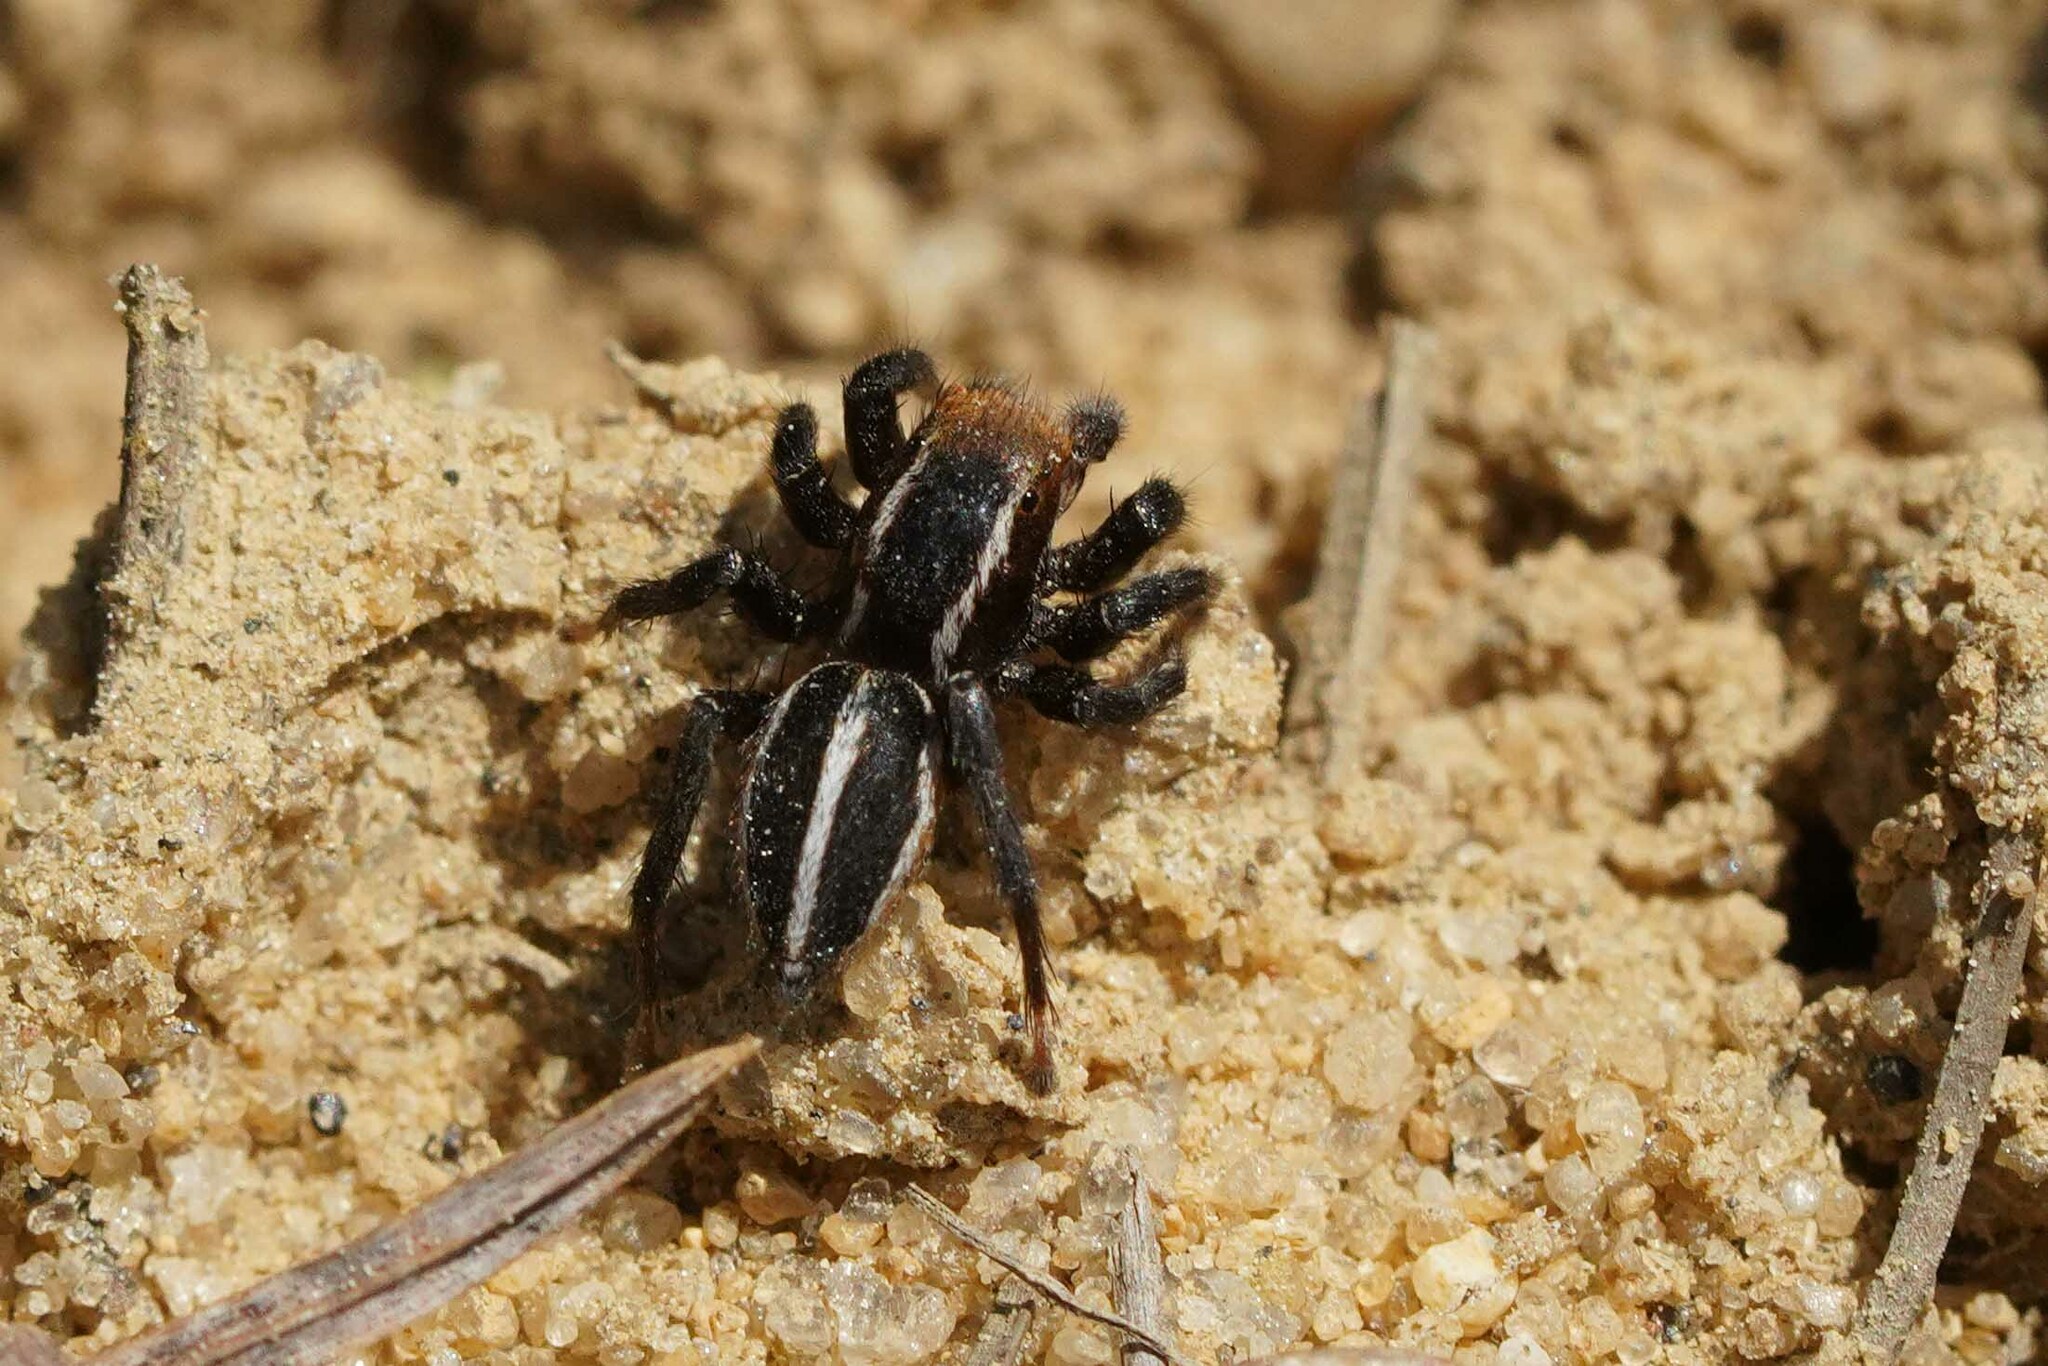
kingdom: Animalia
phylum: Arthropoda
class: Arachnida
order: Araneae
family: Salticidae
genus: Phlegra
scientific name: Phlegra hentzi
